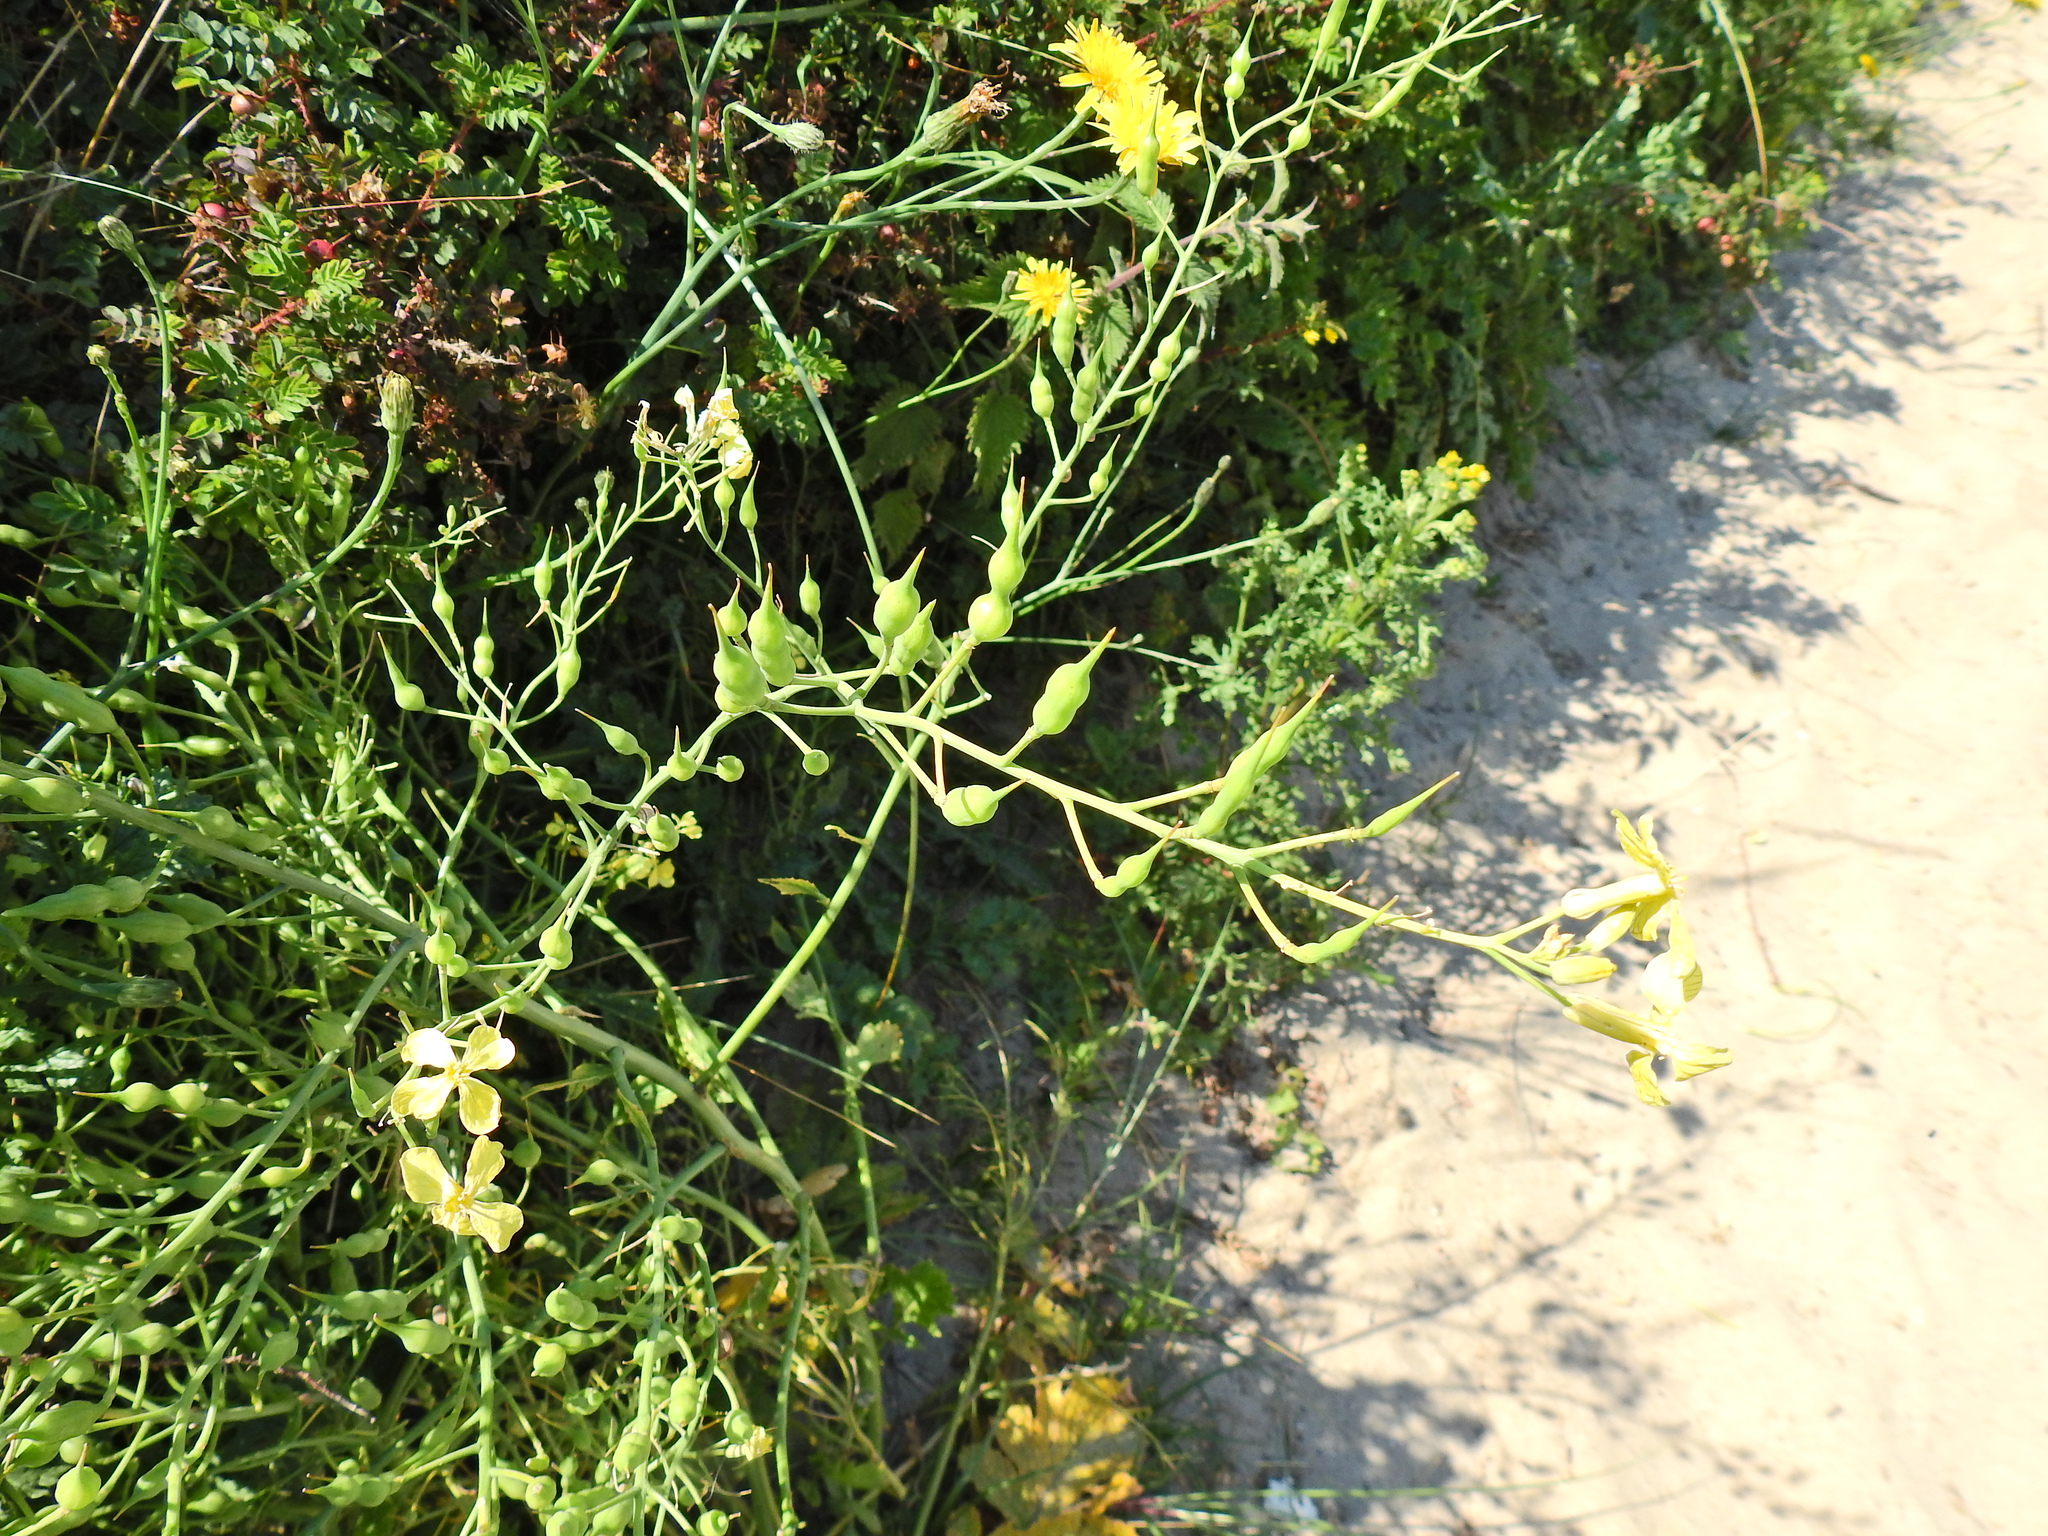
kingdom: Plantae
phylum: Tracheophyta
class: Magnoliopsida
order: Brassicales
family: Brassicaceae
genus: Raphanus
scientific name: Raphanus raphanistrum
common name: Wild radish
